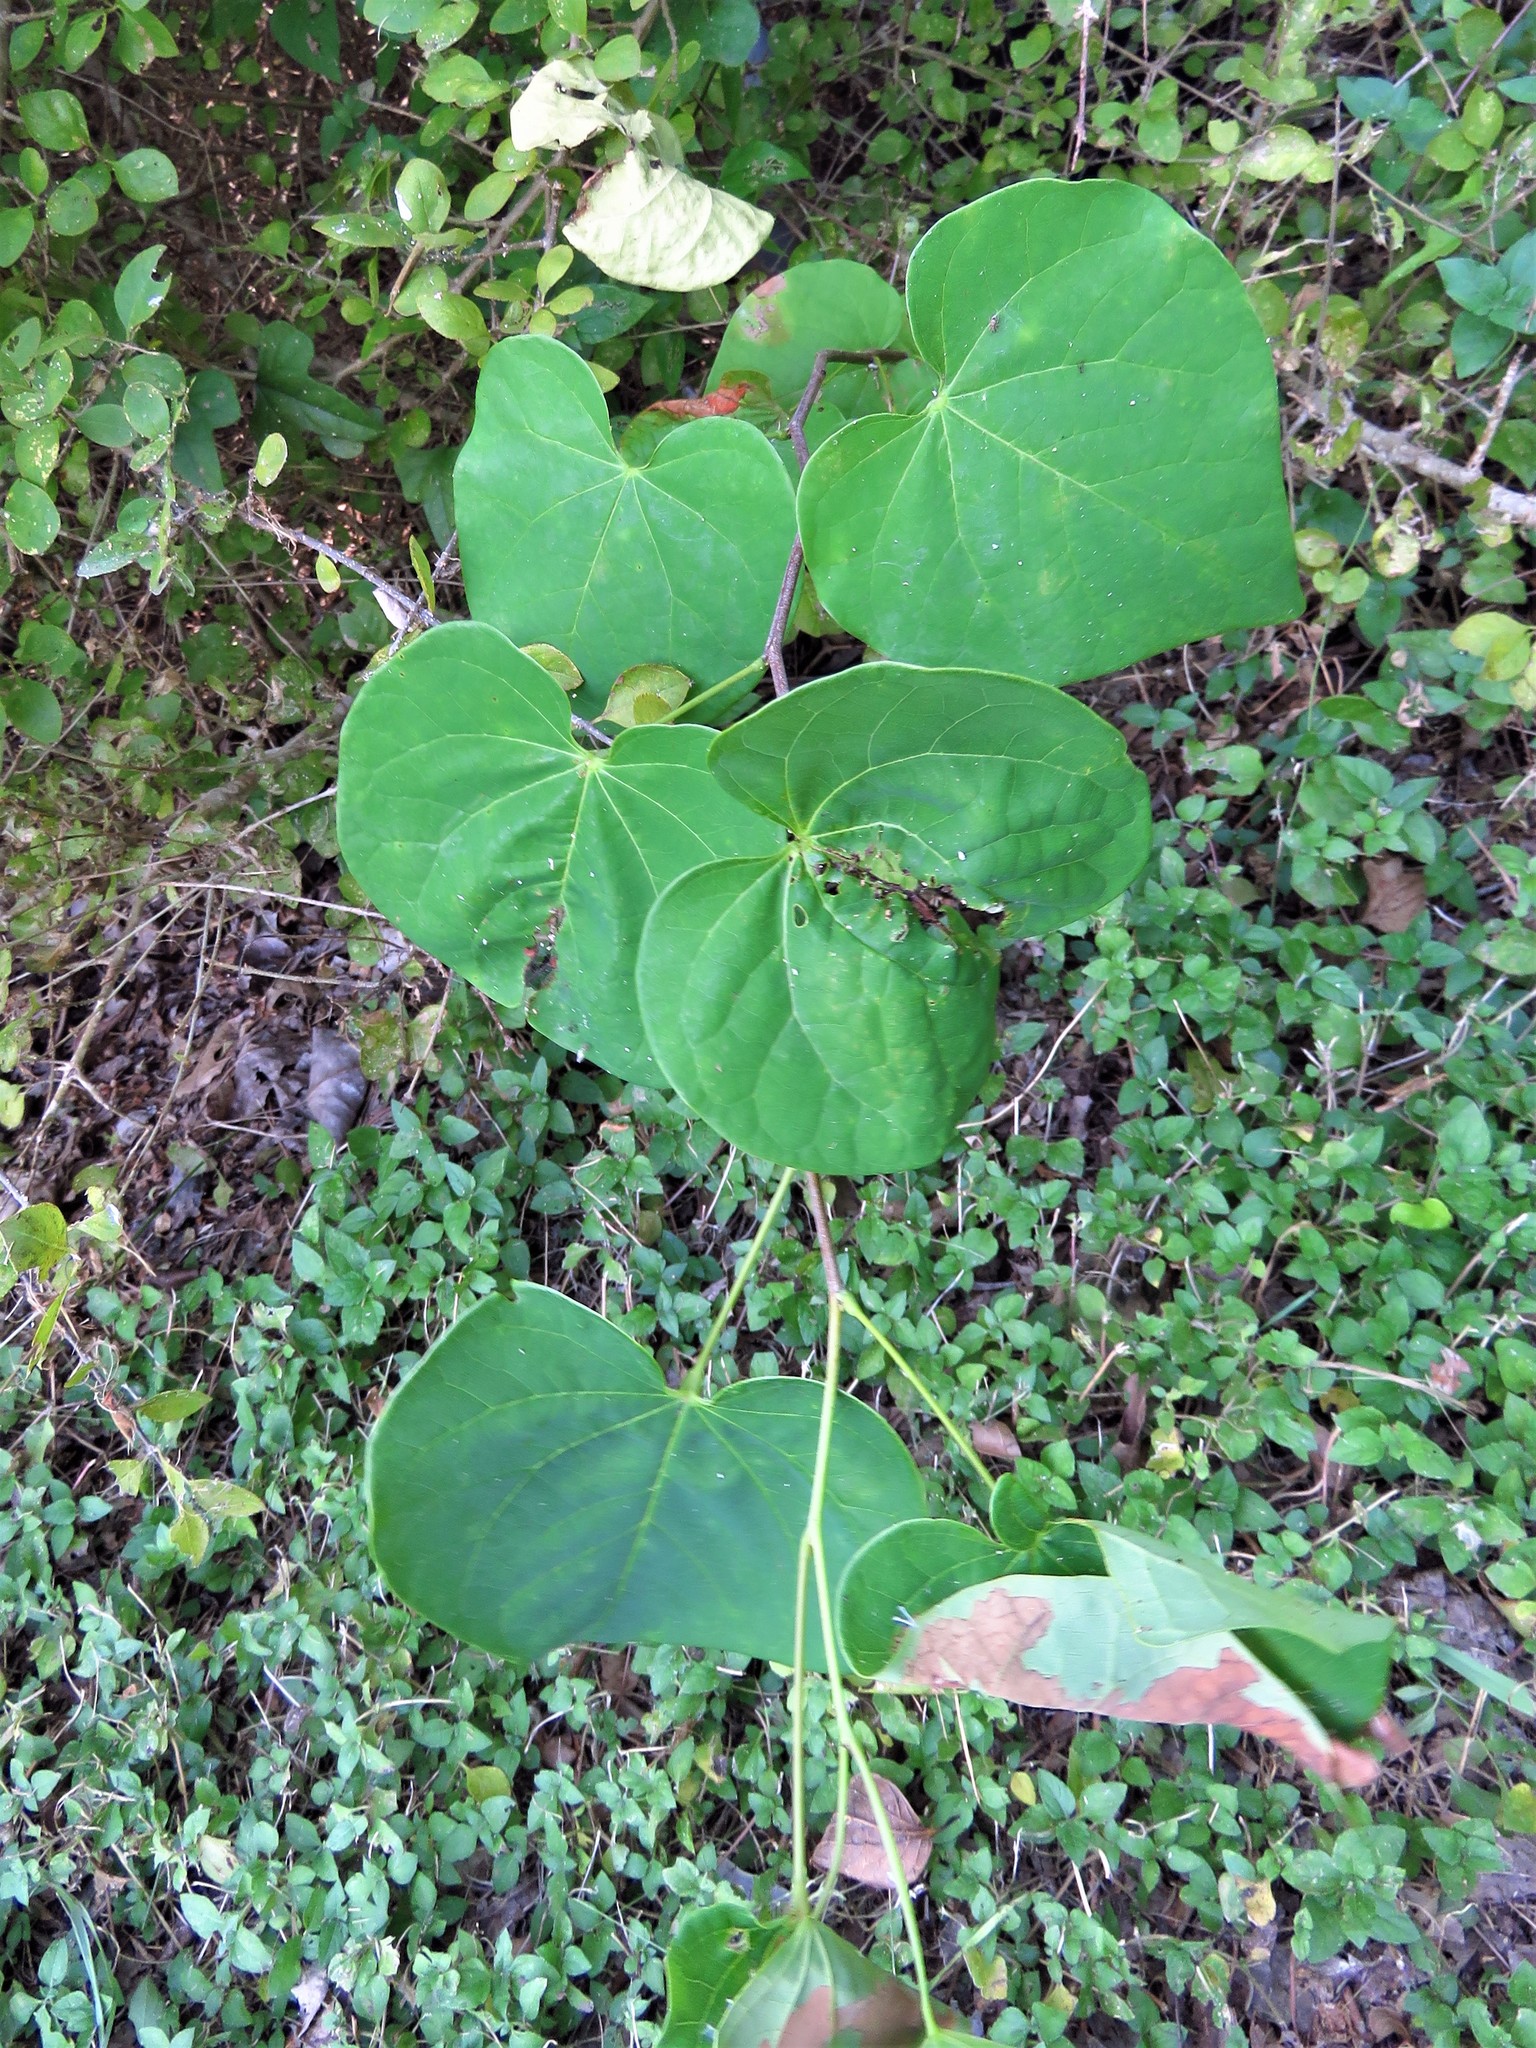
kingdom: Plantae
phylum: Tracheophyta
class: Magnoliopsida
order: Fabales
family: Fabaceae
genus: Cercis
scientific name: Cercis canadensis
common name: Eastern redbud
